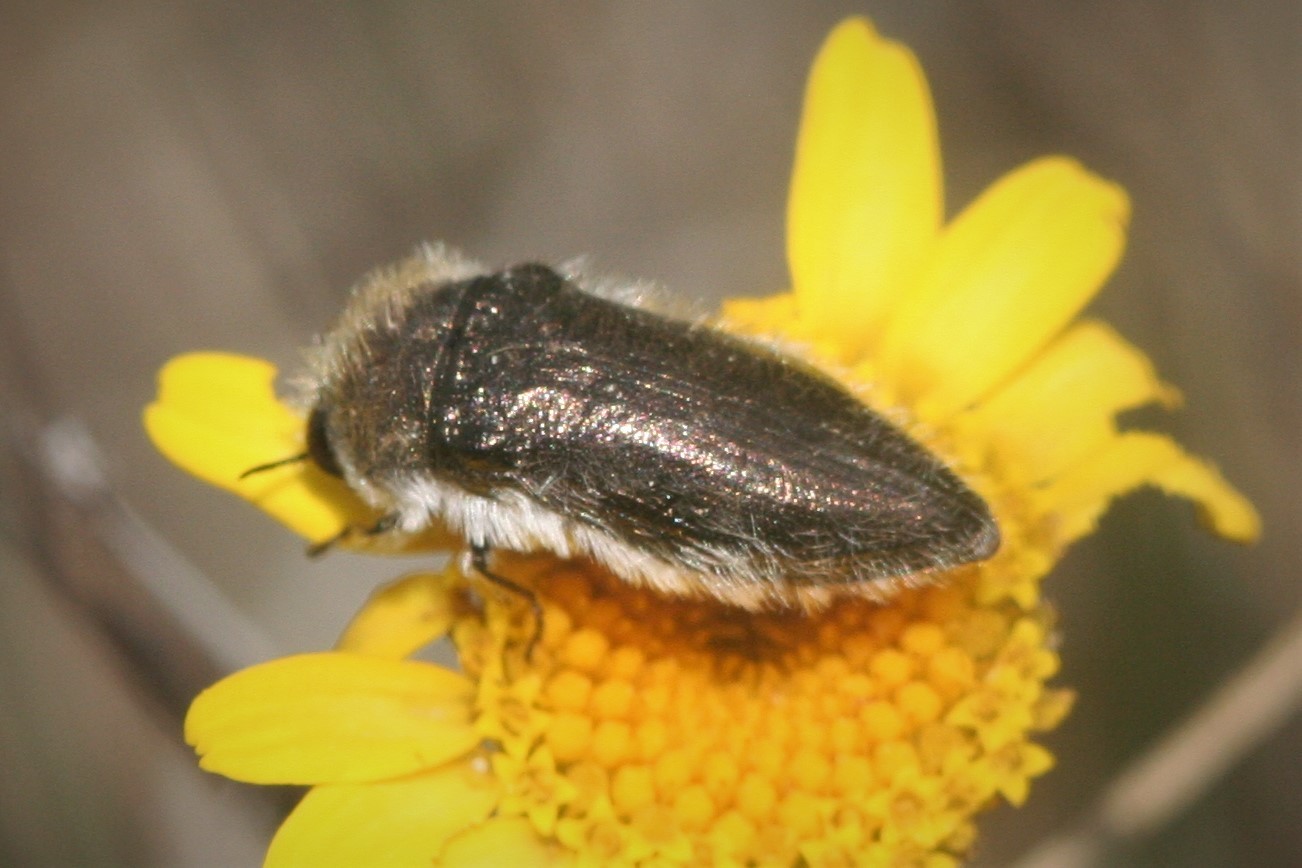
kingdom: Animalia
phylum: Arthropoda
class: Insecta
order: Coleoptera
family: Buprestidae
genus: Acmaeoderella
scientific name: Acmaeoderella vetusta
